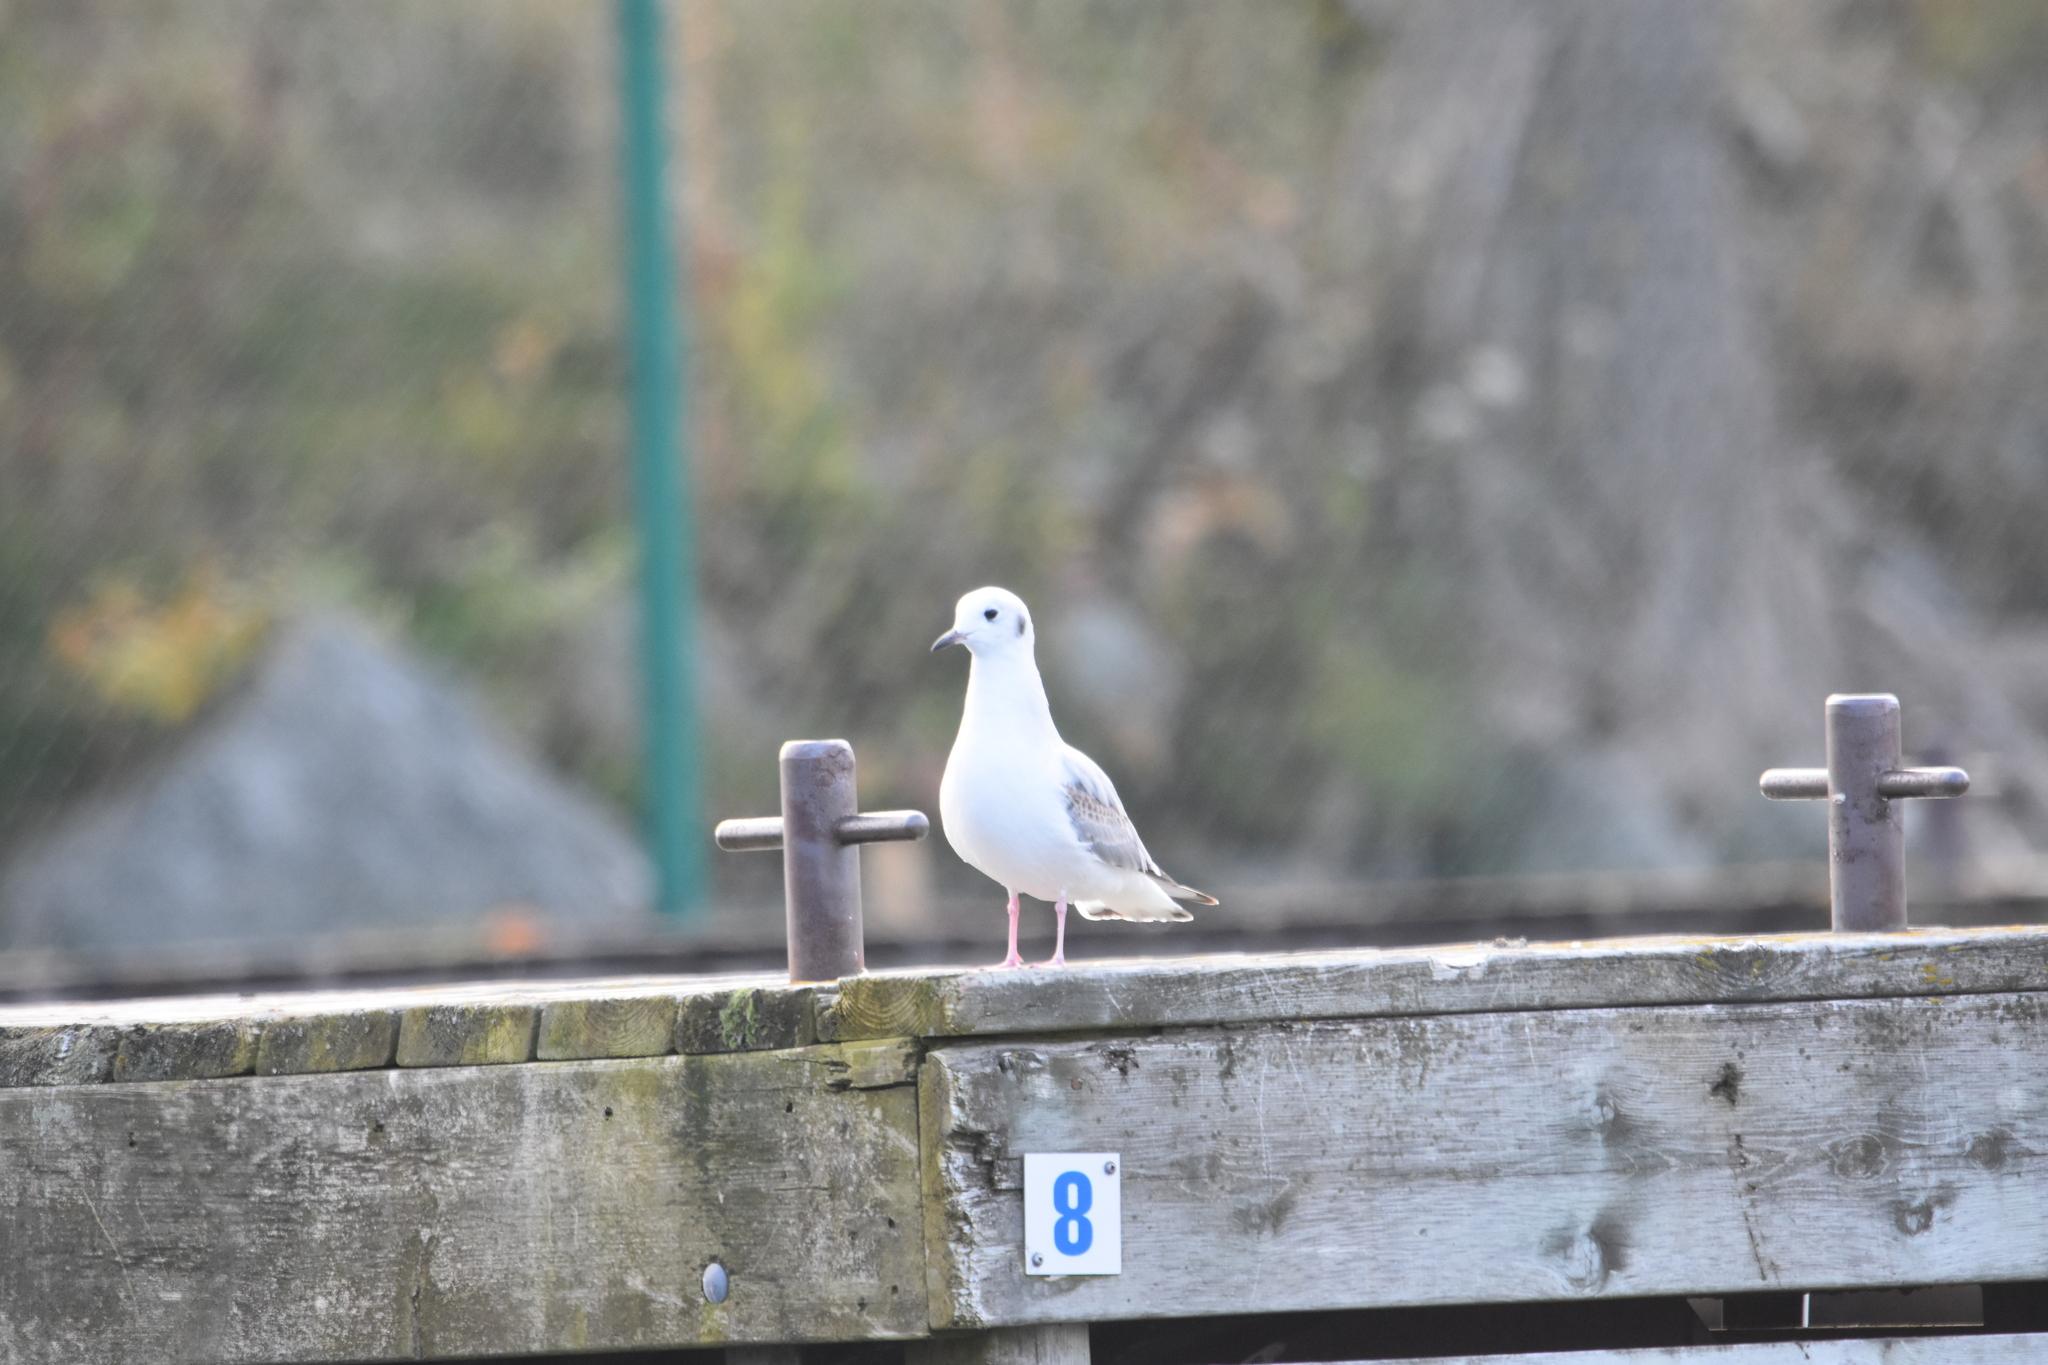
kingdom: Animalia
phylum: Chordata
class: Aves
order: Charadriiformes
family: Laridae
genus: Chroicocephalus
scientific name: Chroicocephalus philadelphia
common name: Bonaparte's gull
